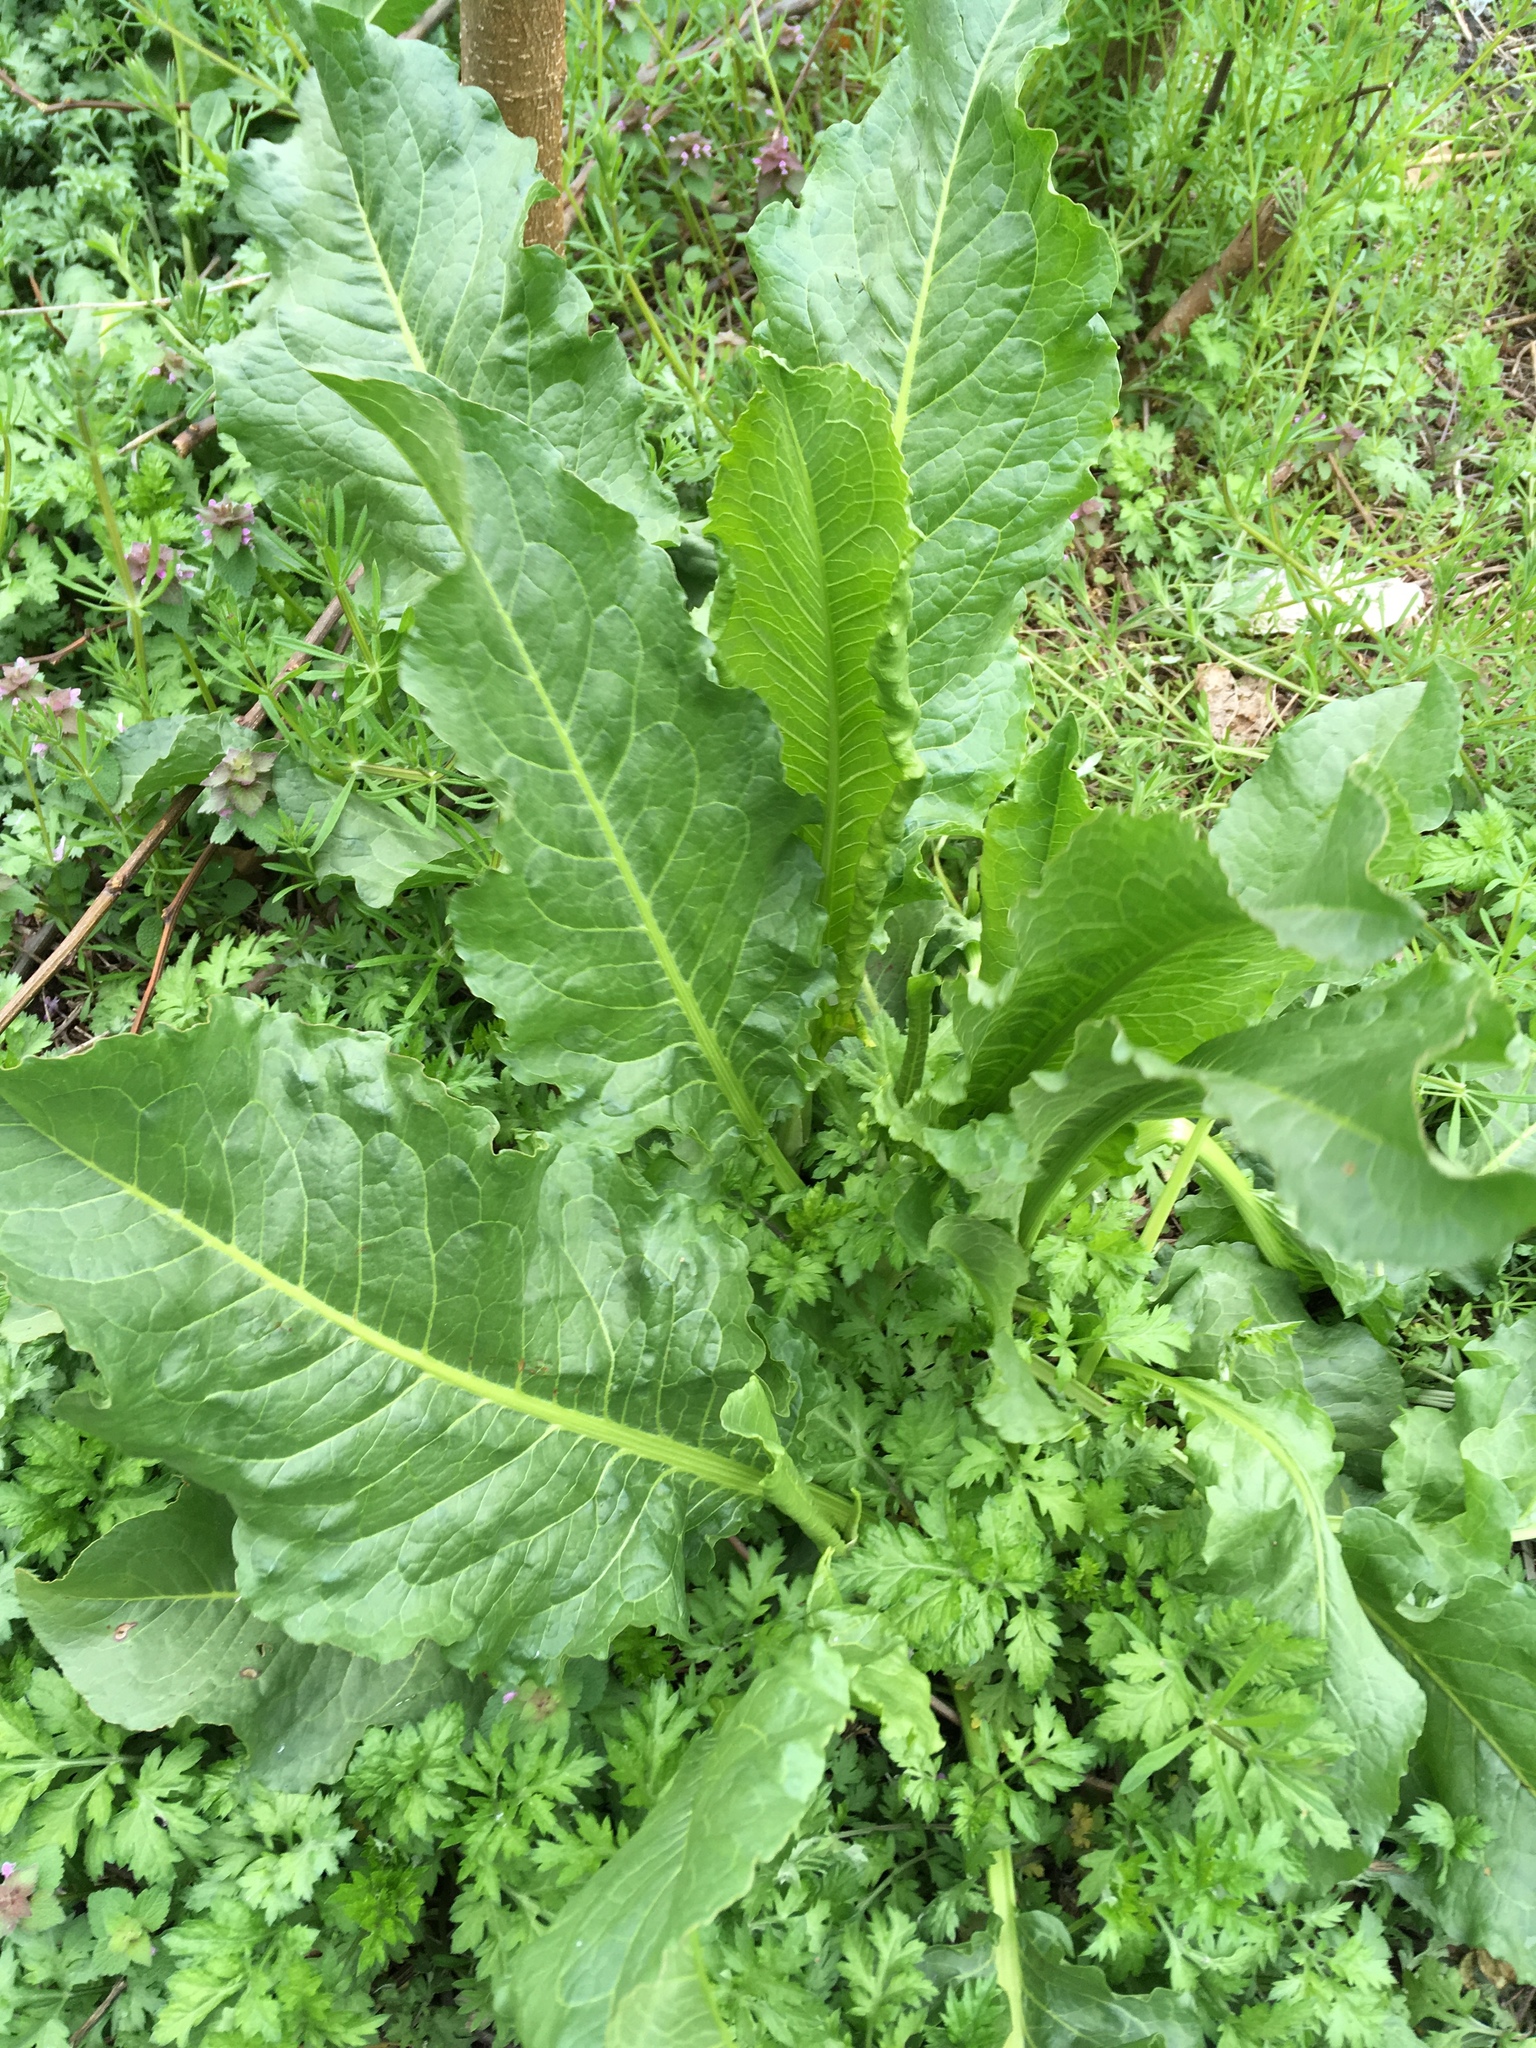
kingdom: Plantae
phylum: Tracheophyta
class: Magnoliopsida
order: Caryophyllales
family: Polygonaceae
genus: Rumex
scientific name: Rumex patientia
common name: Patience dock
